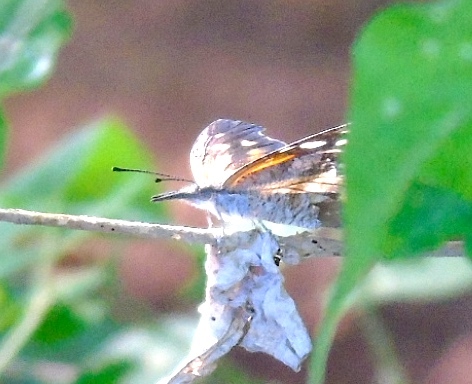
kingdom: Animalia
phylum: Arthropoda
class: Insecta
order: Lepidoptera
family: Nymphalidae
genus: Libytheana
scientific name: Libytheana carinenta
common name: American snout
